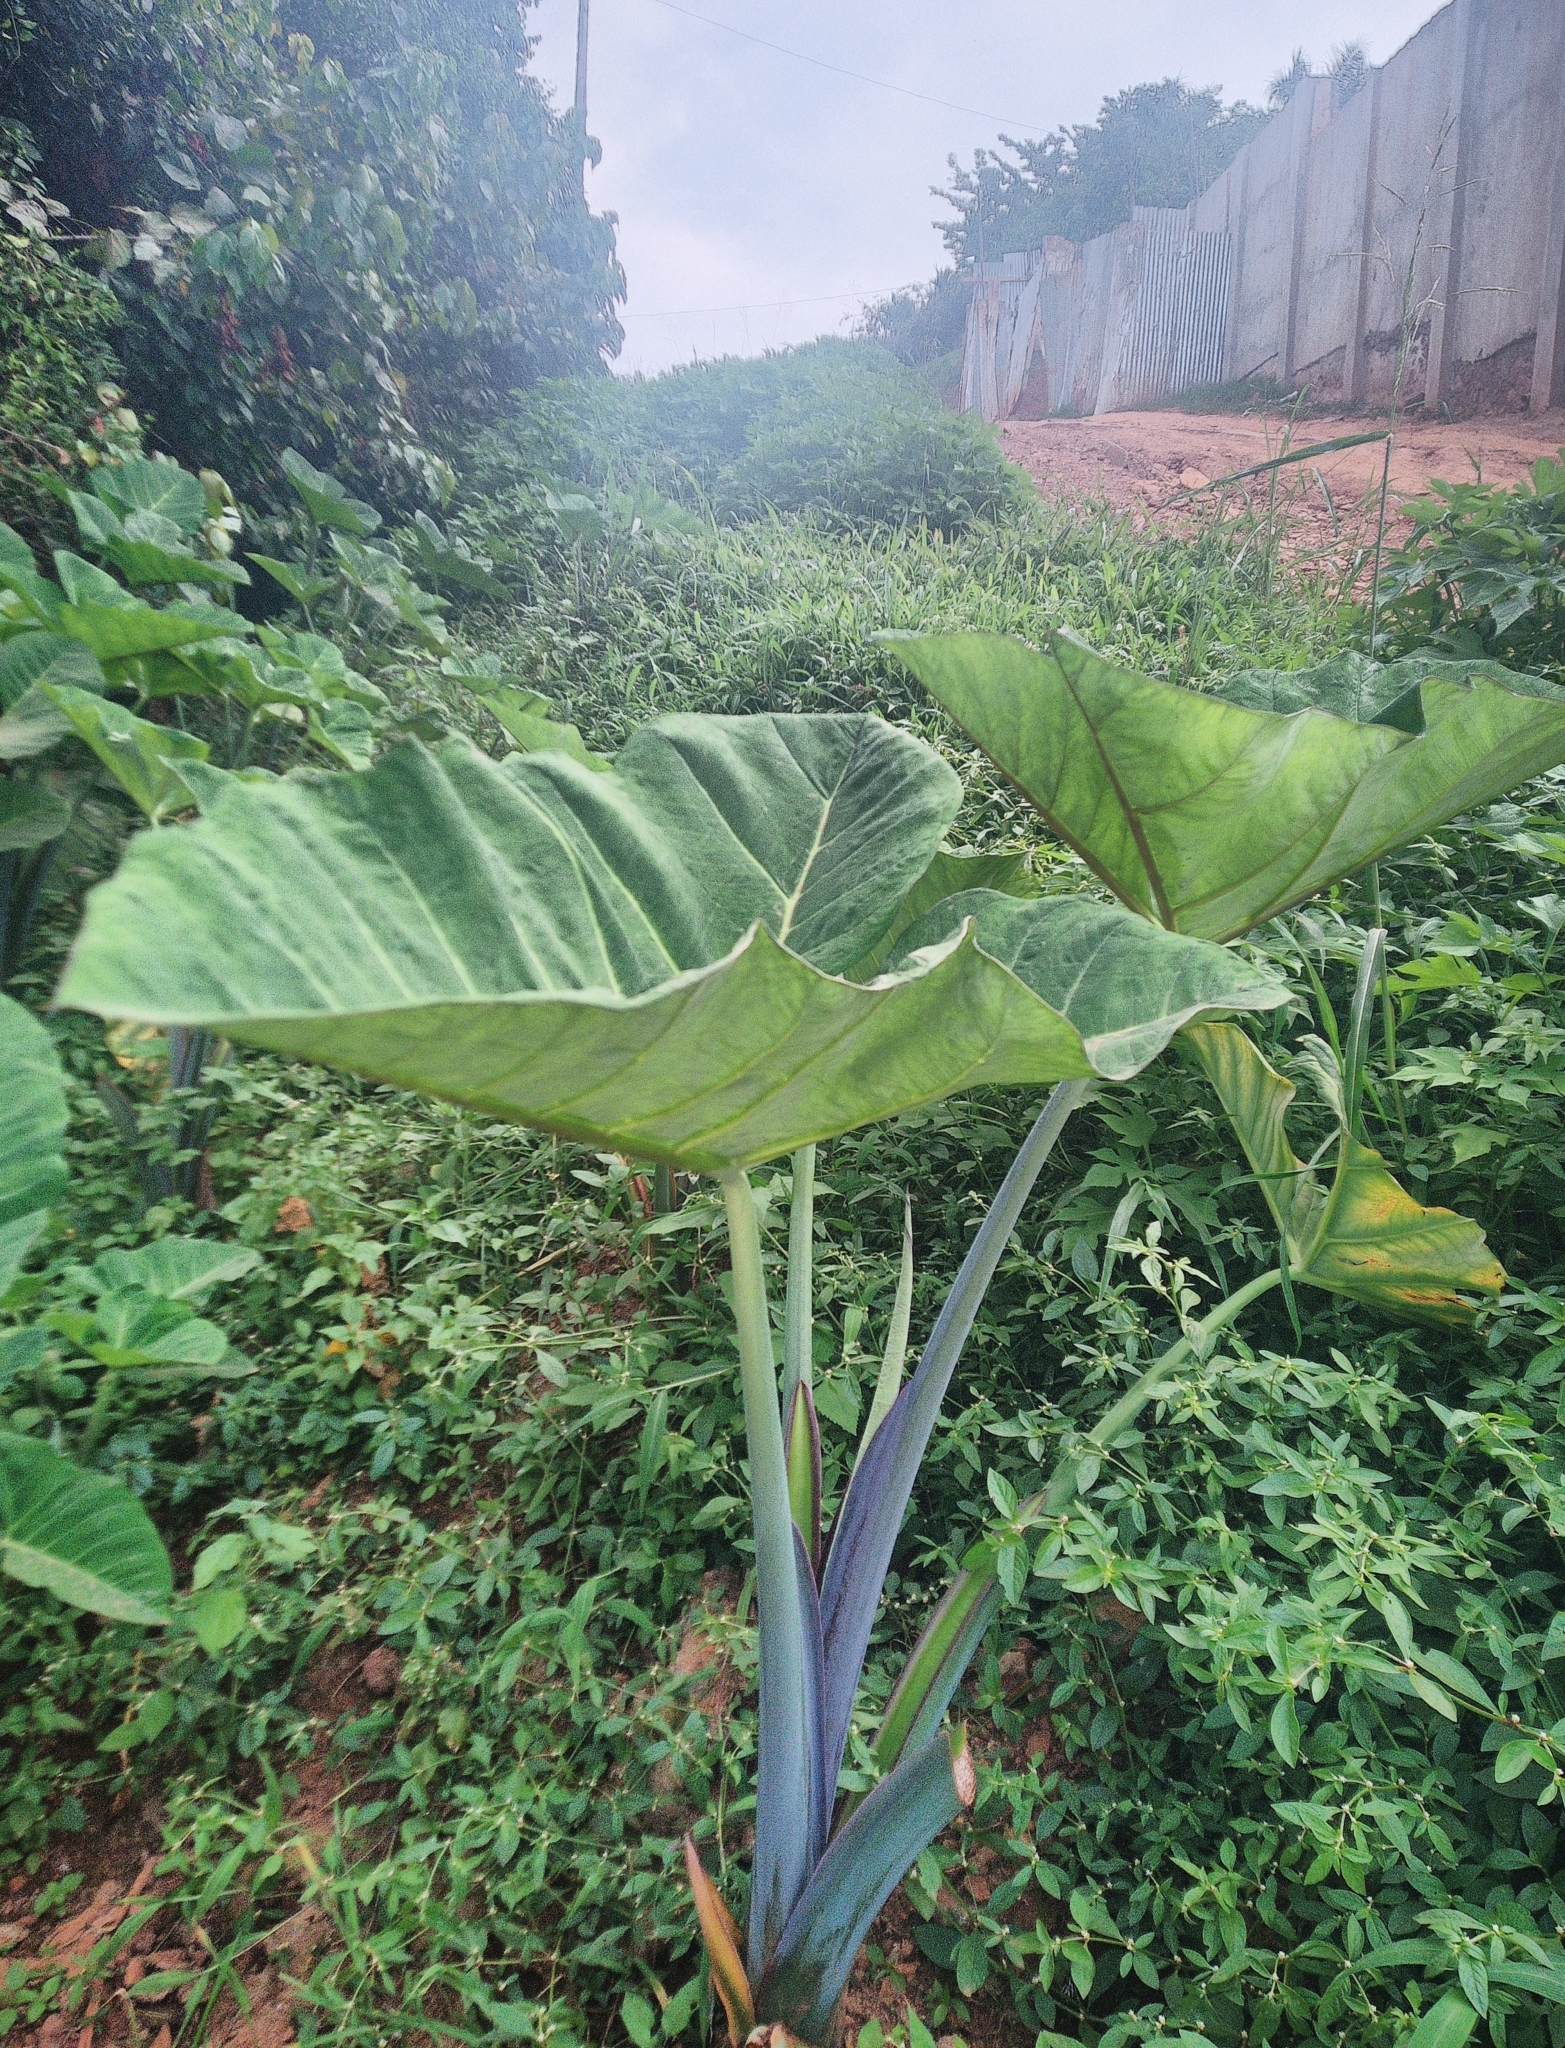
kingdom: Plantae
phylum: Tracheophyta
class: Liliopsida
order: Alismatales
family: Araceae
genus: Colocasia
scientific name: Colocasia esculenta
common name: Taro
